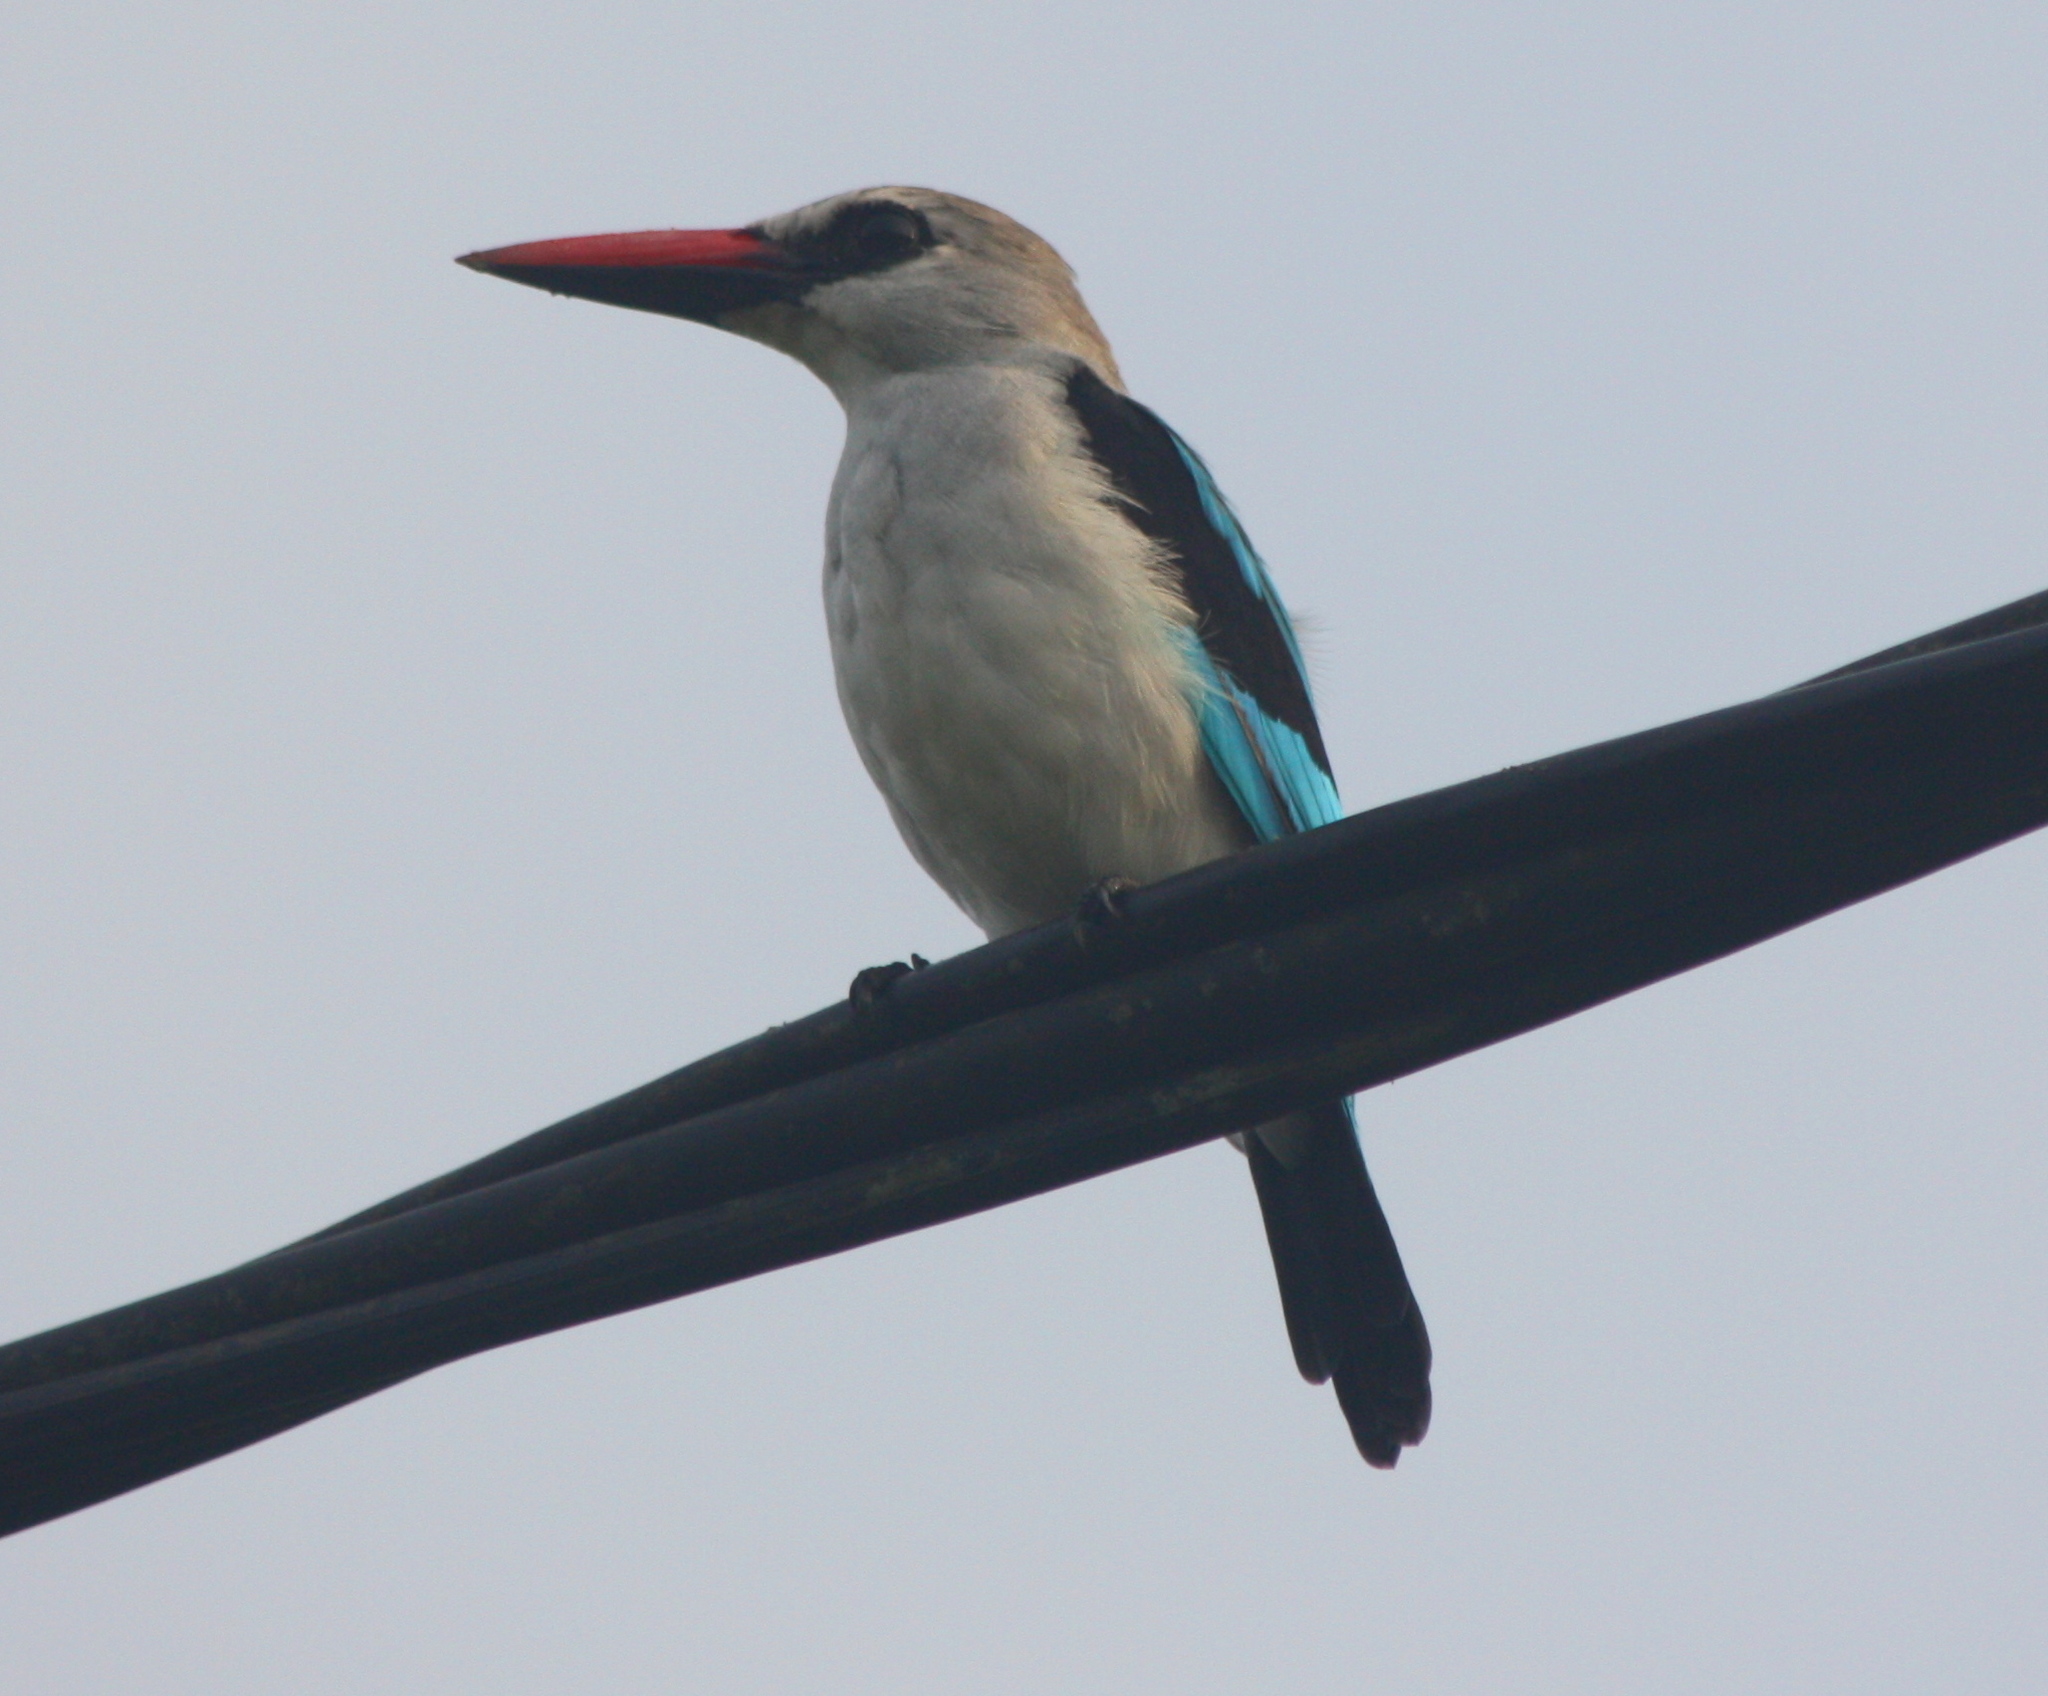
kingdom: Animalia
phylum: Chordata
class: Aves
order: Coraciiformes
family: Alcedinidae
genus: Halcyon
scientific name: Halcyon senegalensis
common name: Woodland kingfisher
